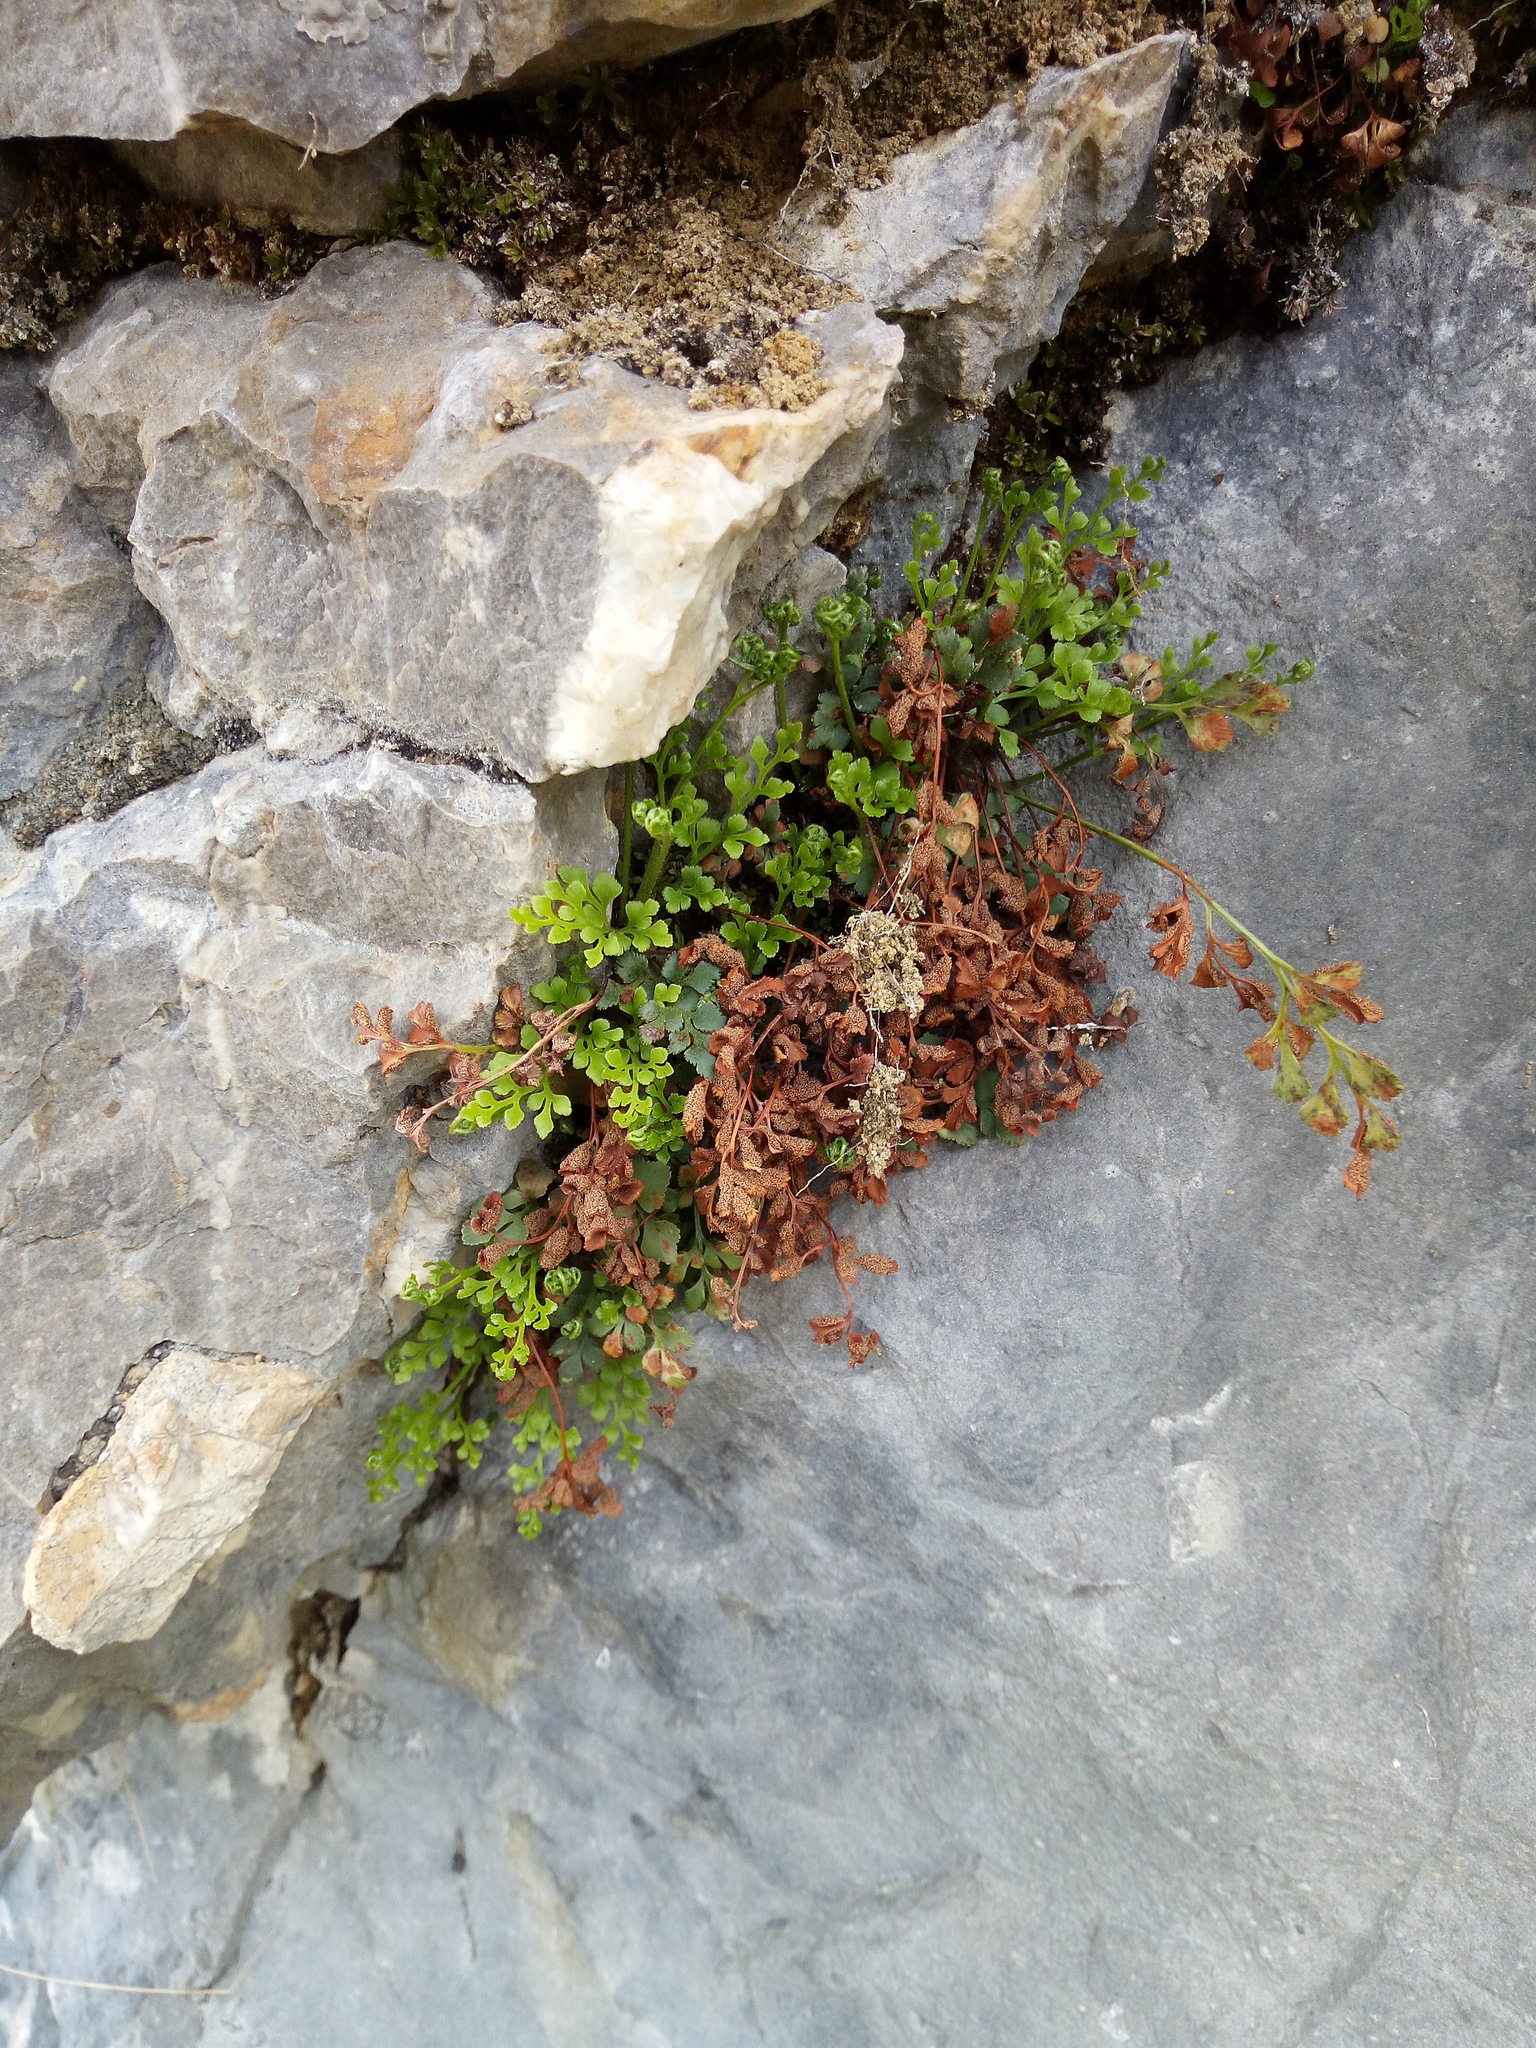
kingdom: Plantae
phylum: Tracheophyta
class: Polypodiopsida
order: Polypodiales
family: Aspleniaceae
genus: Asplenium
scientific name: Asplenium ruta-muraria
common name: Wall-rue
